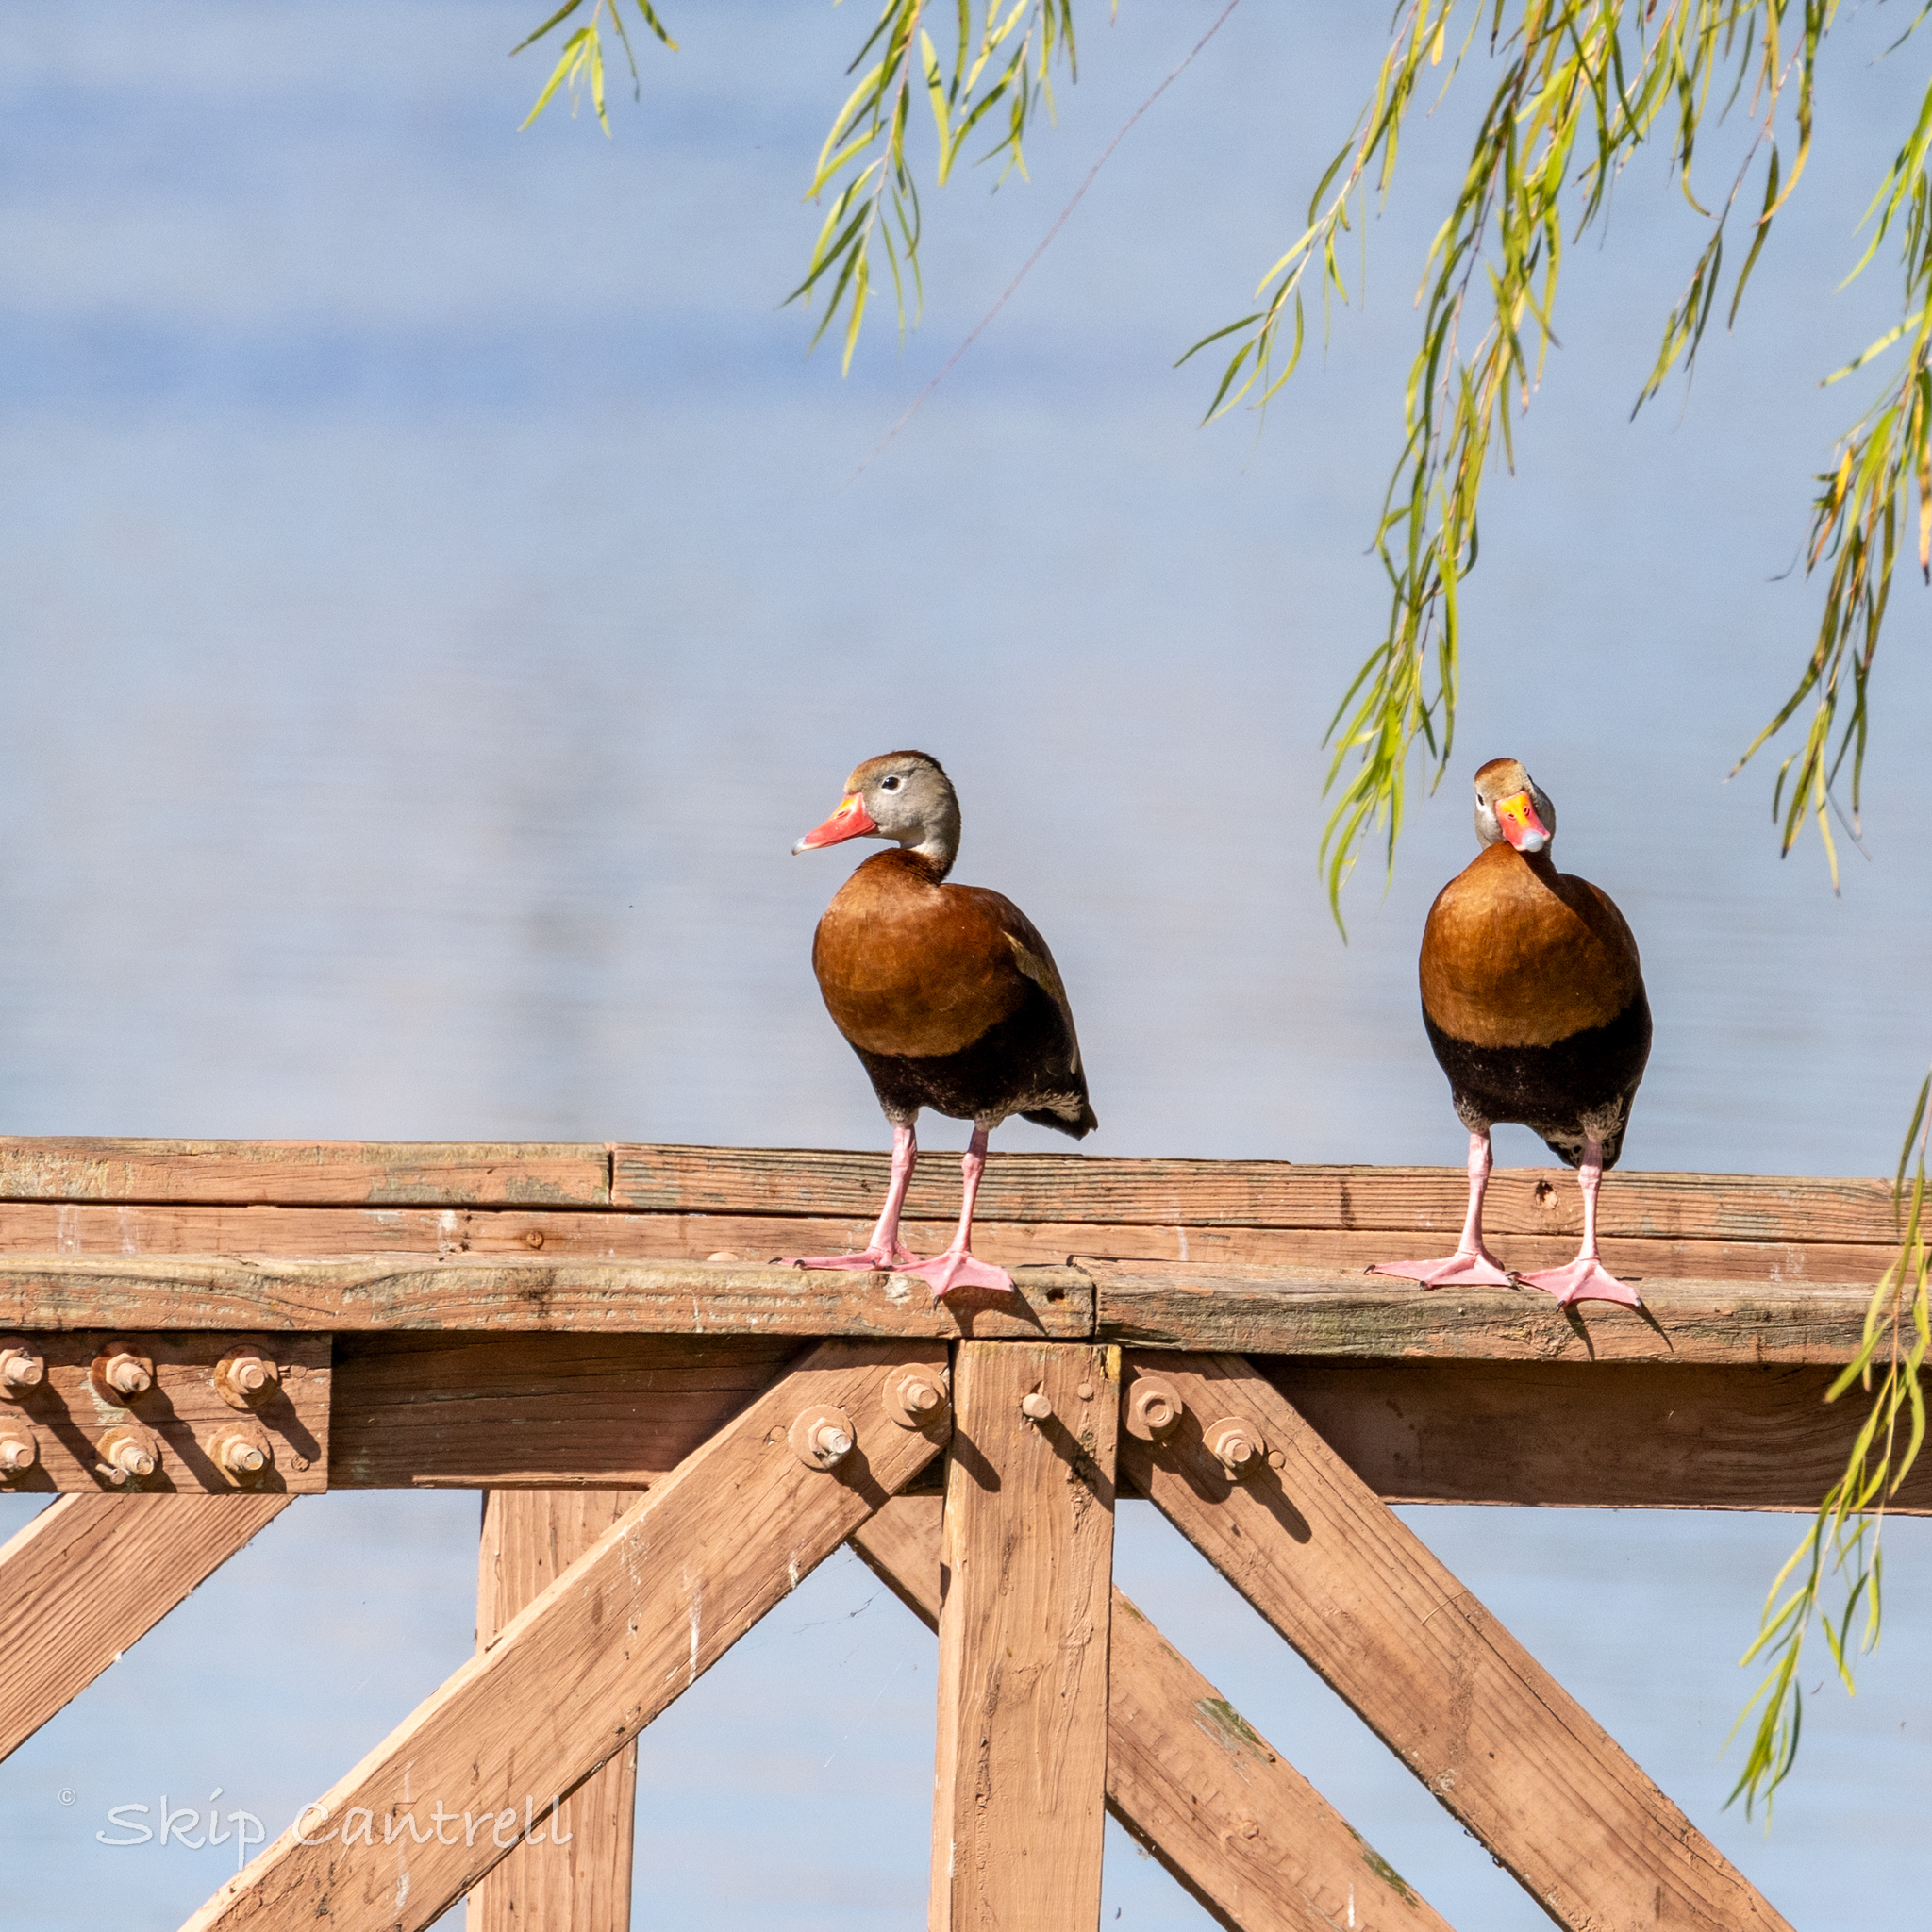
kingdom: Animalia
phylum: Chordata
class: Aves
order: Anseriformes
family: Anatidae
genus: Dendrocygna
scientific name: Dendrocygna autumnalis
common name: Black-bellied whistling duck
